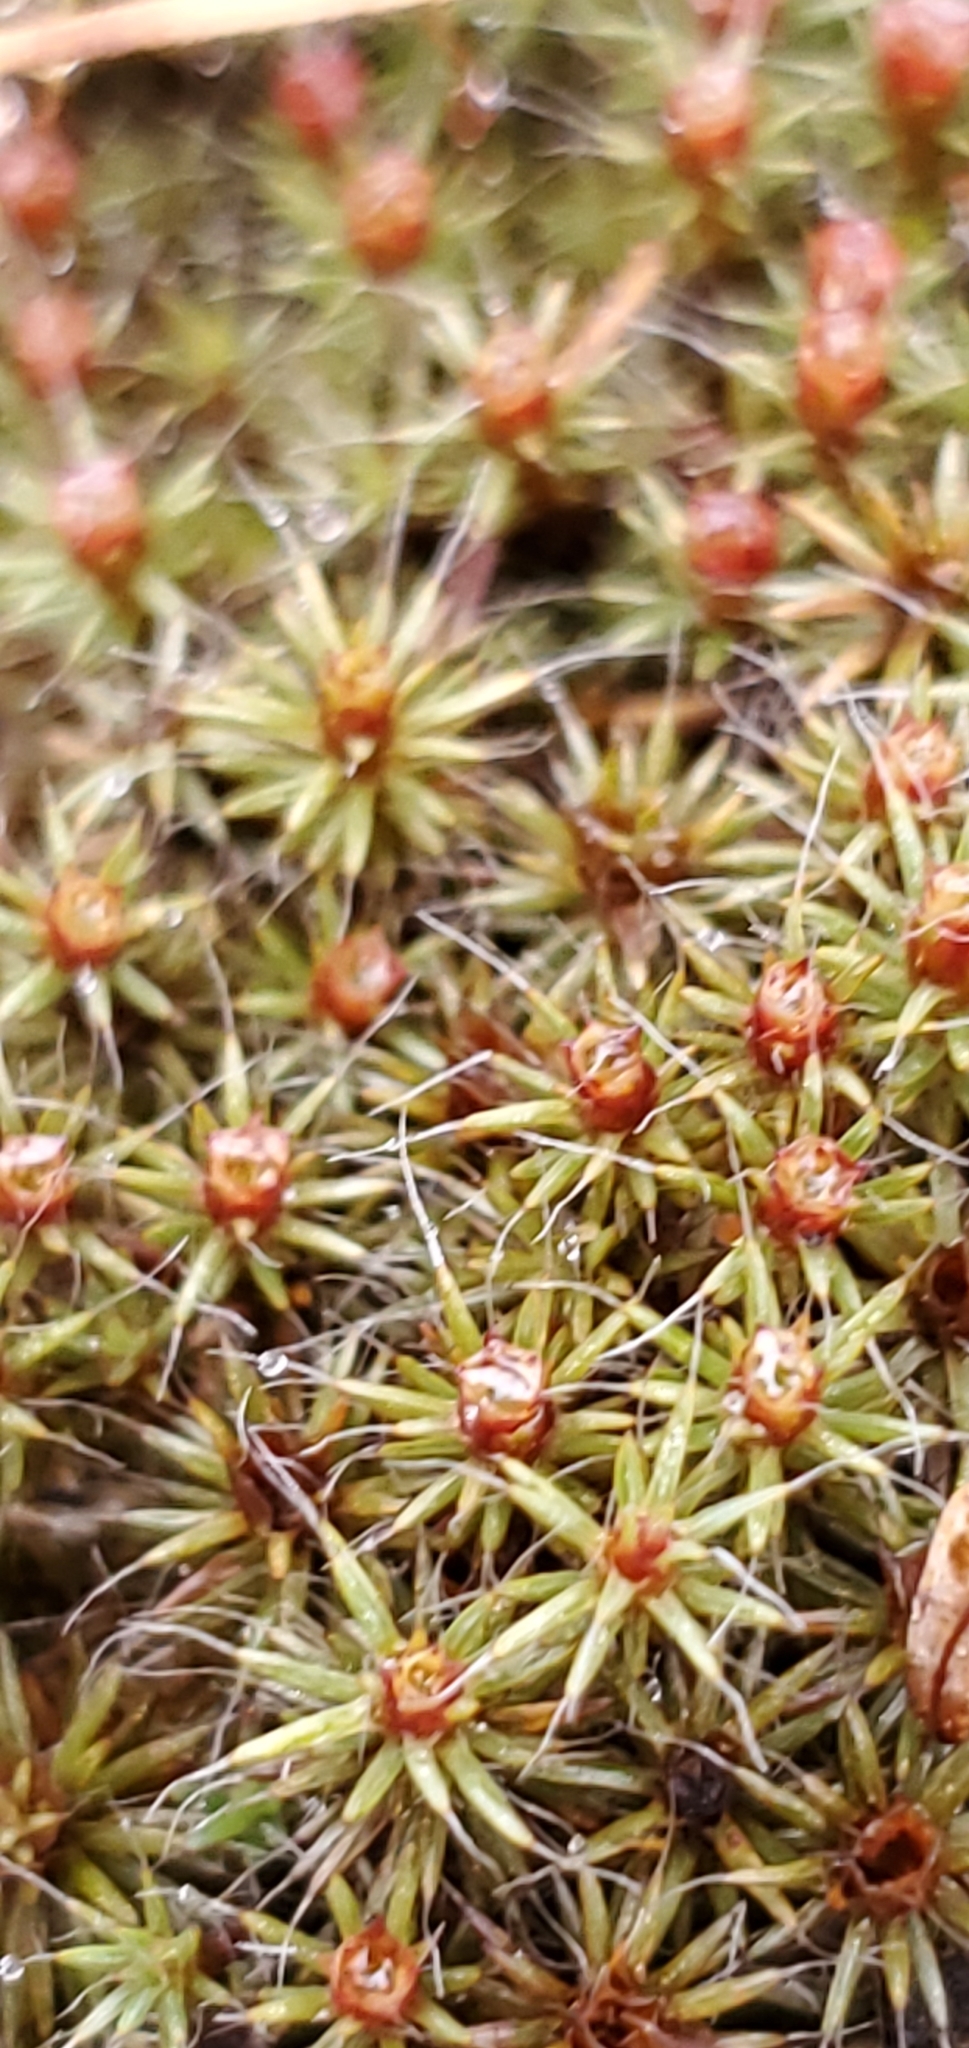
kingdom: Plantae
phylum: Bryophyta
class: Polytrichopsida
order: Polytrichales
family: Polytrichaceae
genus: Polytrichum
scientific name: Polytrichum piliferum
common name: Bristly haircap
